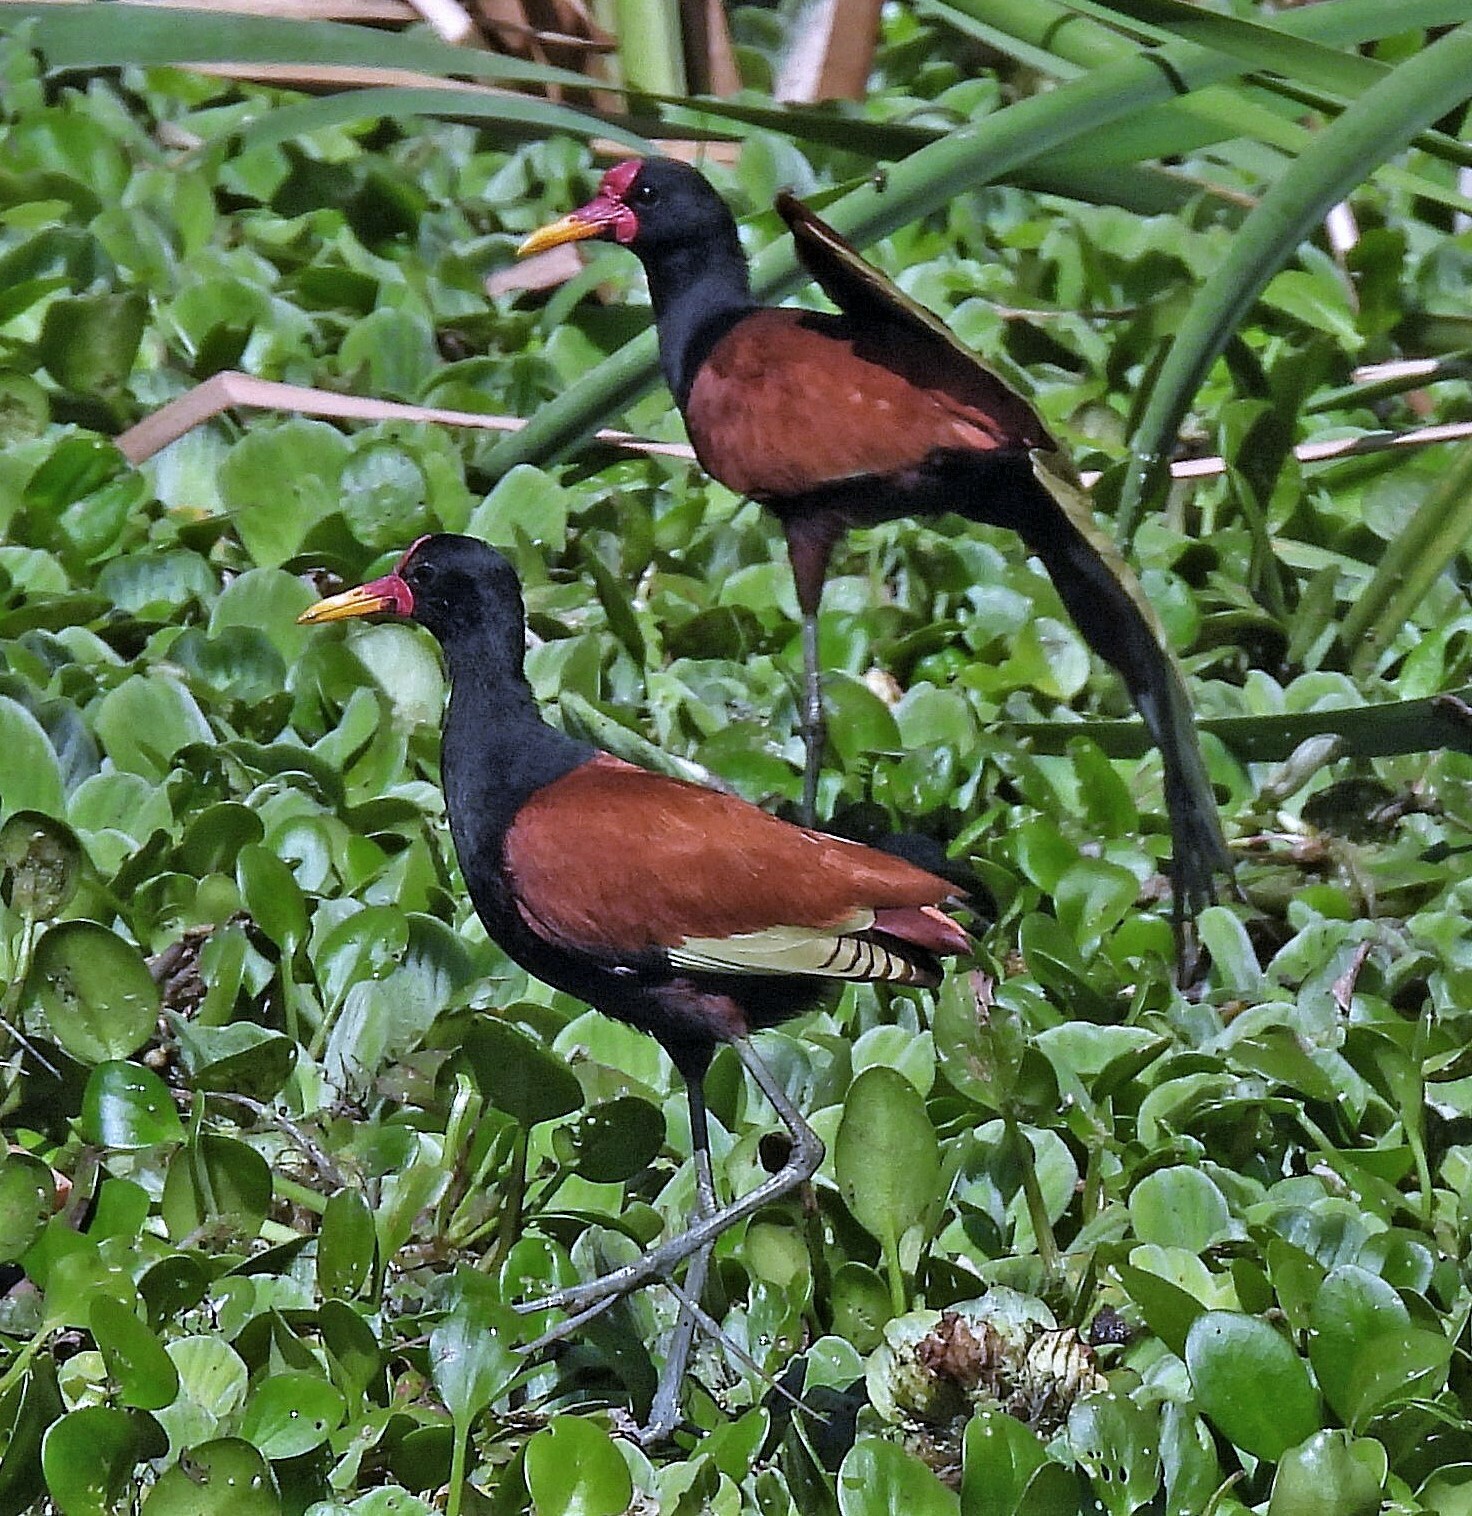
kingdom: Animalia
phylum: Chordata
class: Aves
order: Charadriiformes
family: Jacanidae
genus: Jacana
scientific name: Jacana jacana
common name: Wattled jacana
